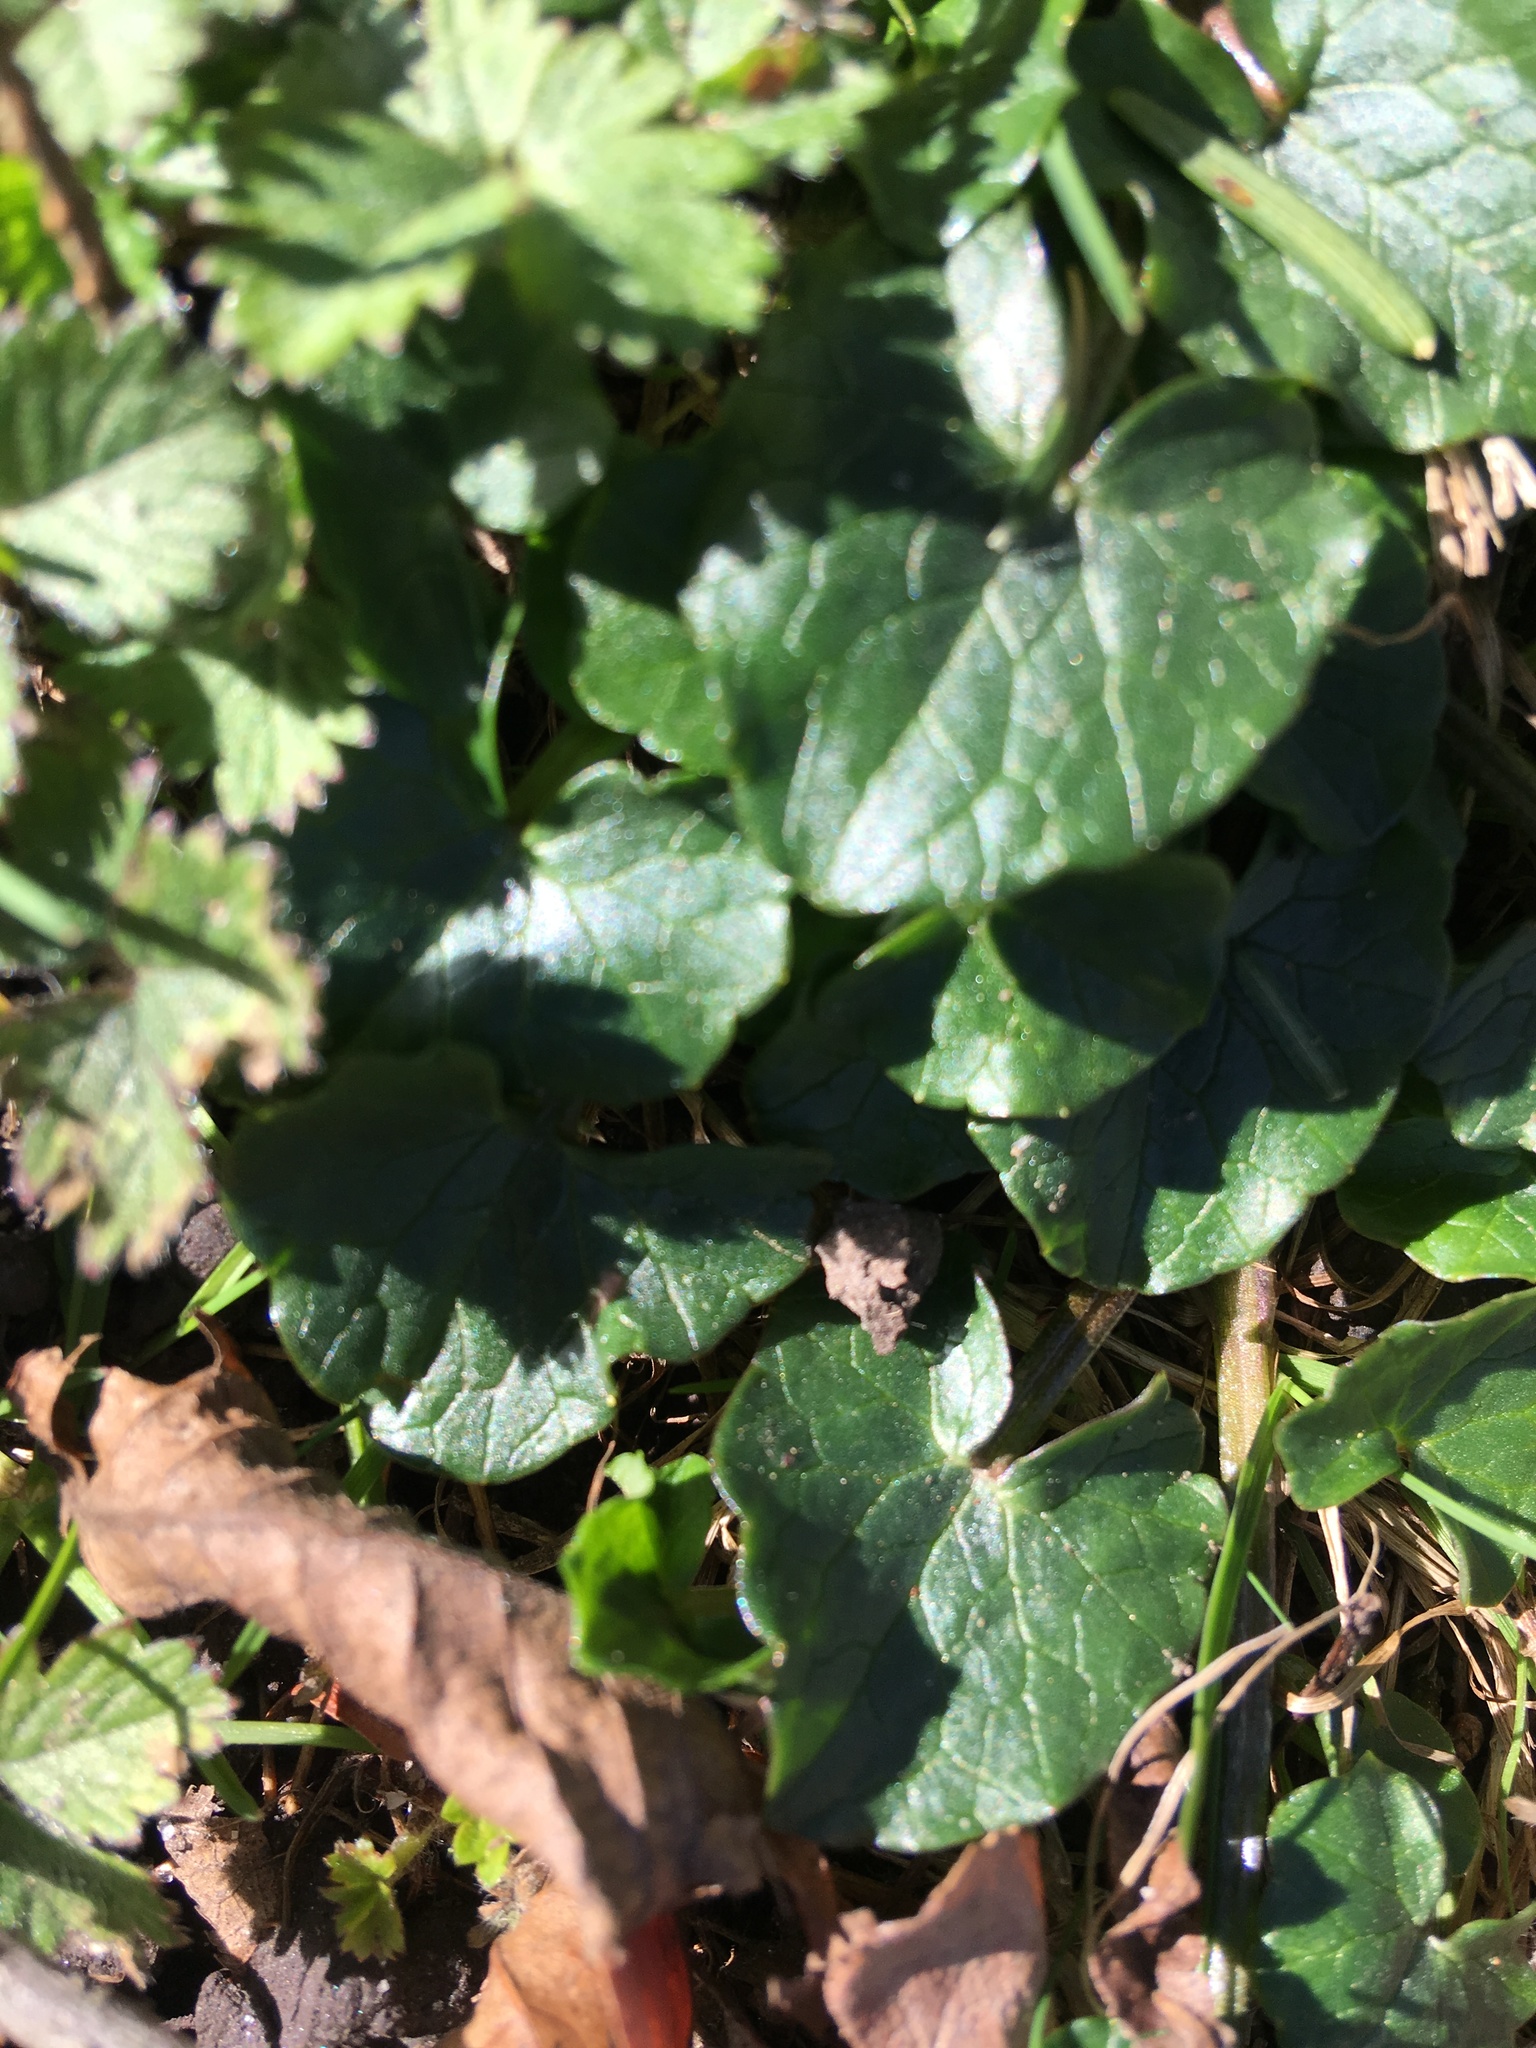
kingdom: Plantae
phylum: Tracheophyta
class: Magnoliopsida
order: Ranunculales
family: Ranunculaceae
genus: Ficaria
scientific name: Ficaria verna
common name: Lesser celandine
